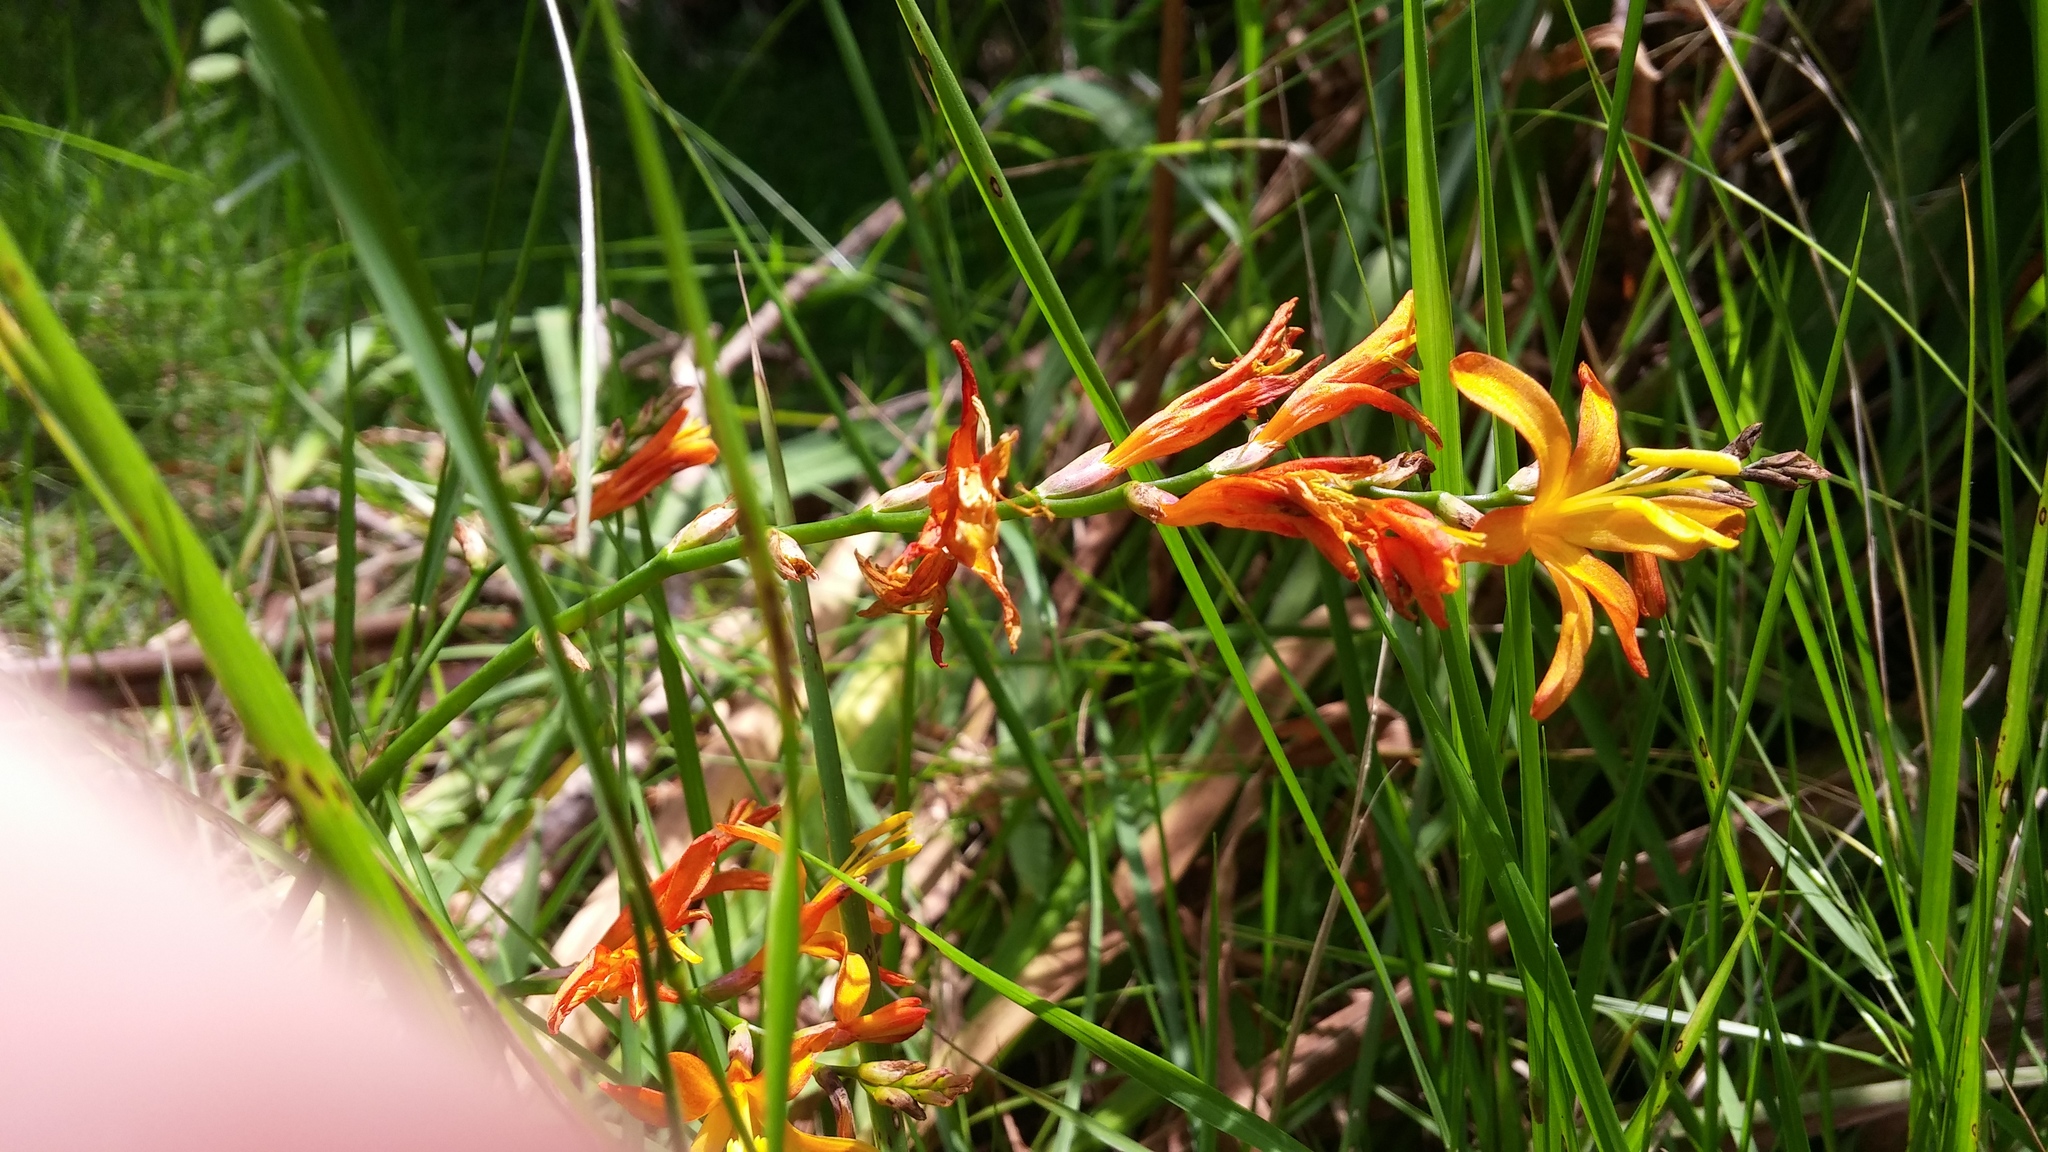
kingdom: Plantae
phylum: Tracheophyta
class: Liliopsida
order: Asparagales
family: Iridaceae
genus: Crocosmia
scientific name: Crocosmia crocosmiiflora
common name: Montbretia
